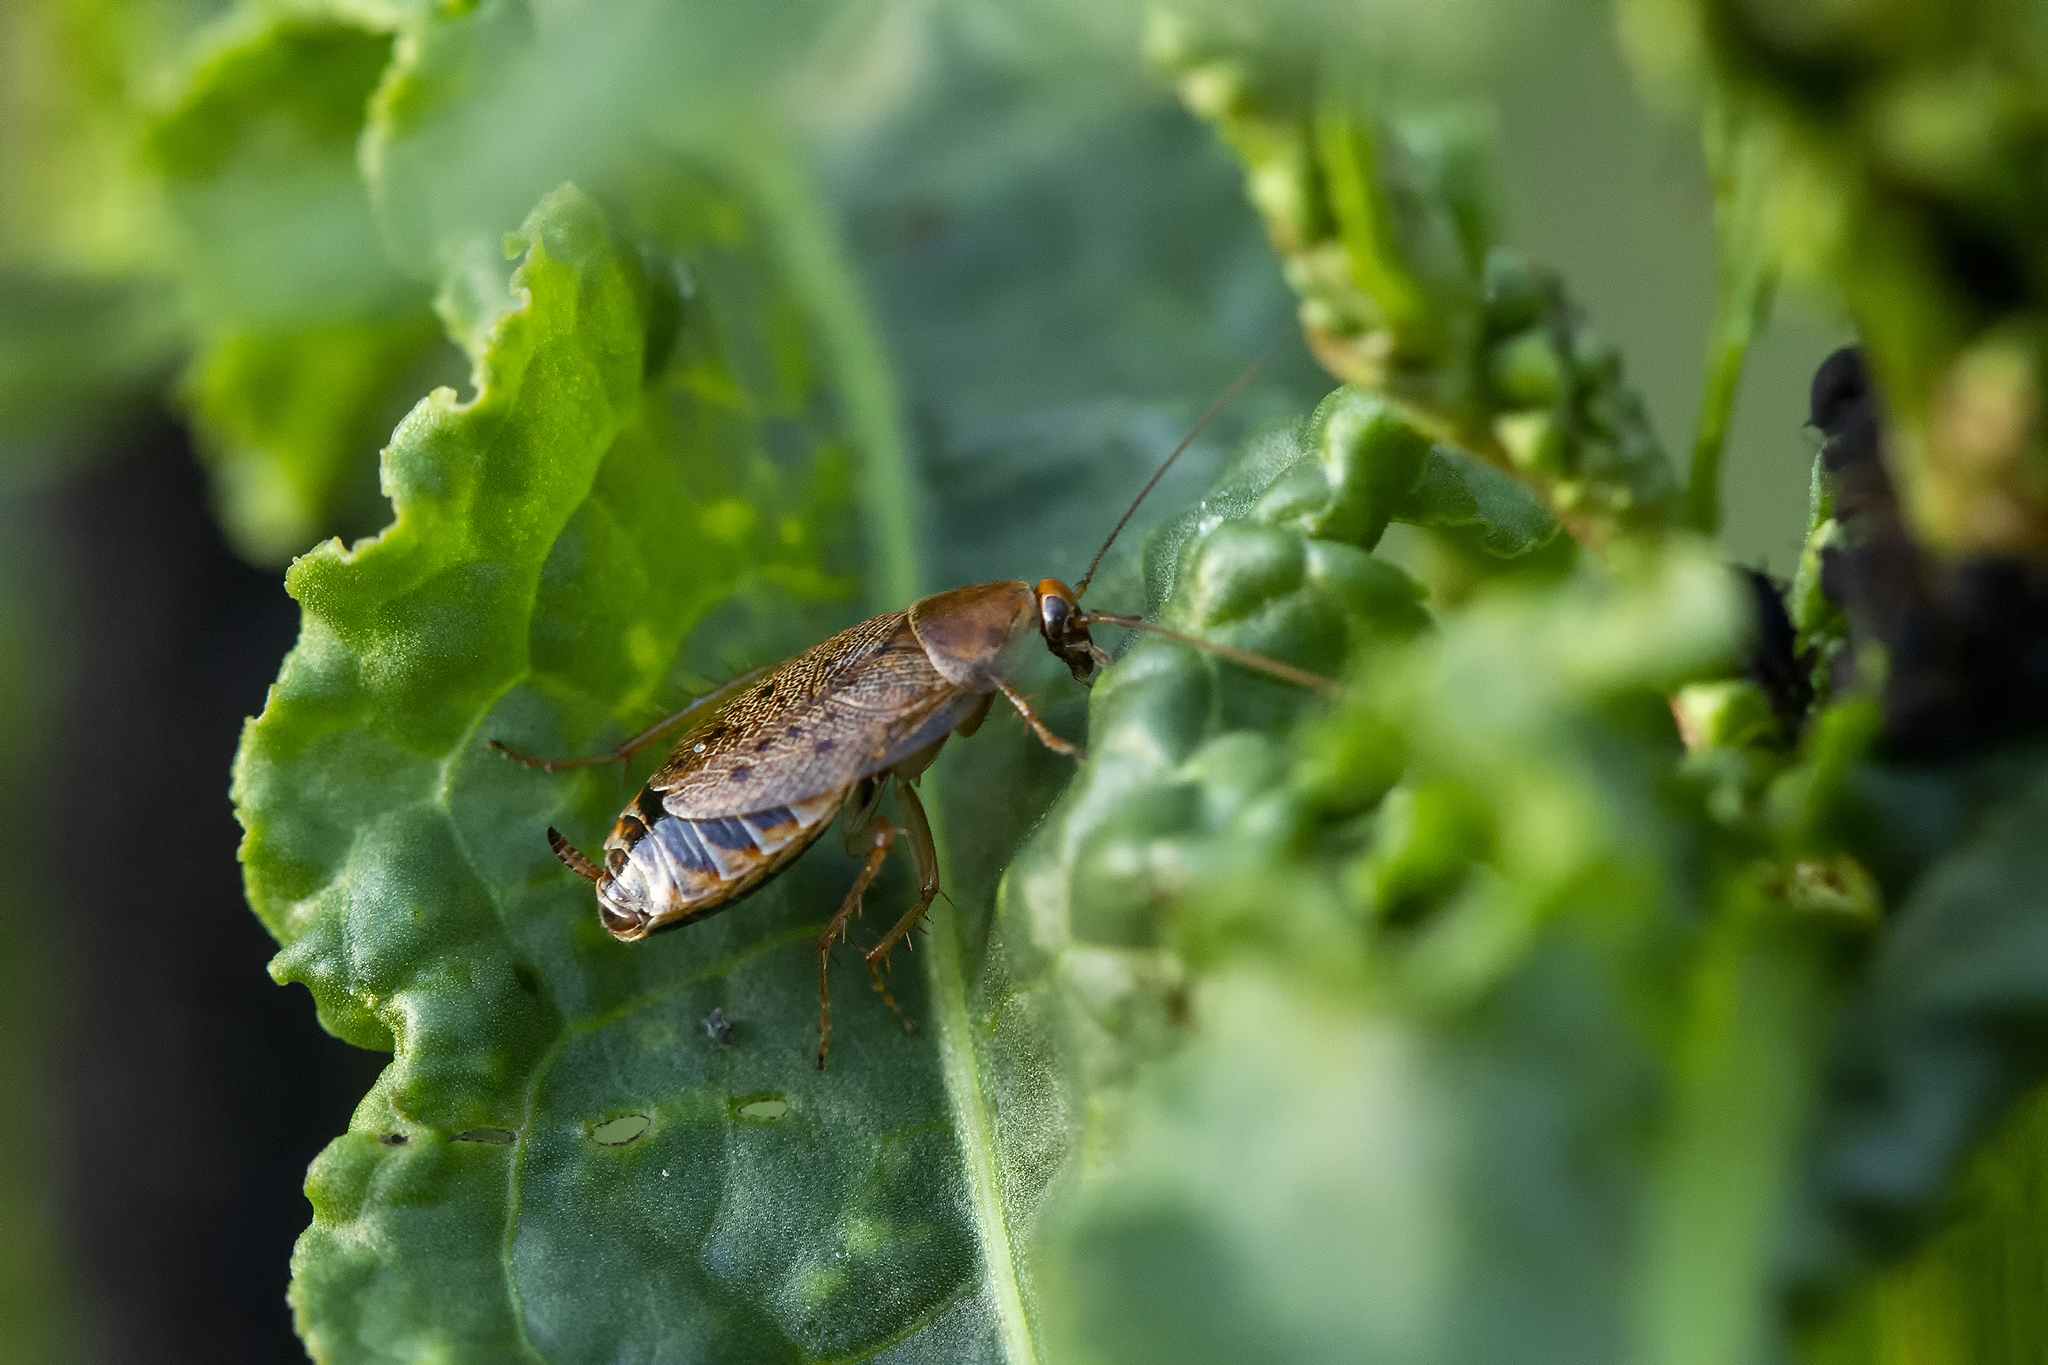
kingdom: Animalia
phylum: Arthropoda
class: Insecta
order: Blattodea
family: Ectobiidae
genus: Ectobius
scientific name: Ectobius lapponicus
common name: Dusky cockroach
